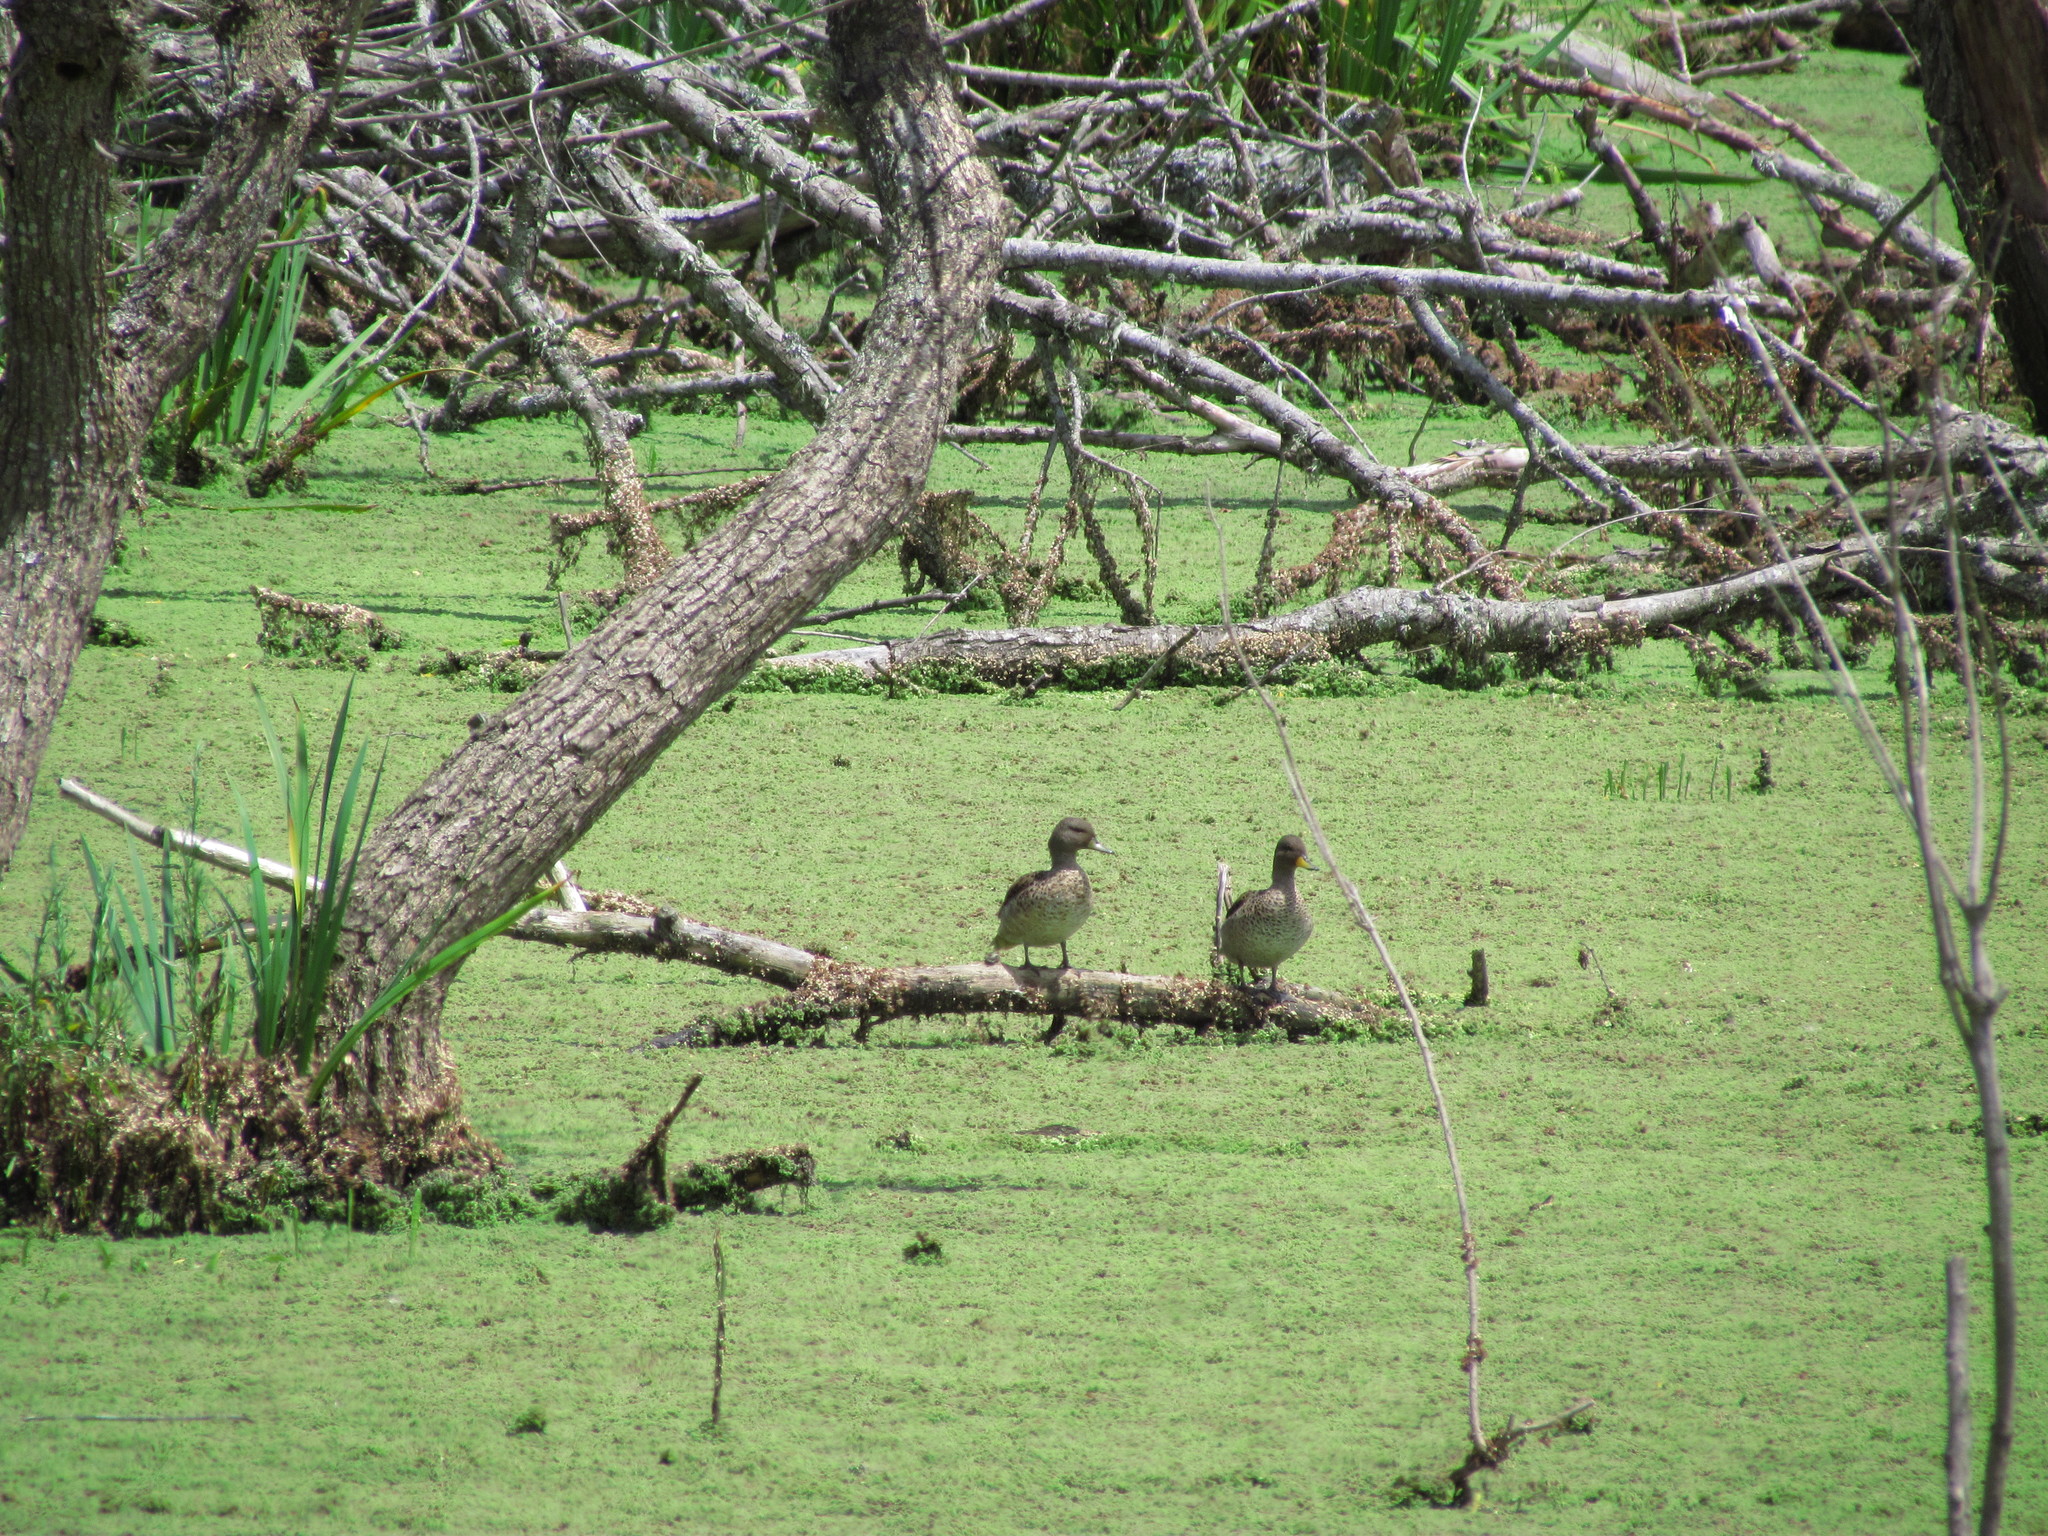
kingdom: Animalia
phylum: Chordata
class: Aves
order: Anseriformes
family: Anatidae
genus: Anas
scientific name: Anas flavirostris
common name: Yellow-billed teal
